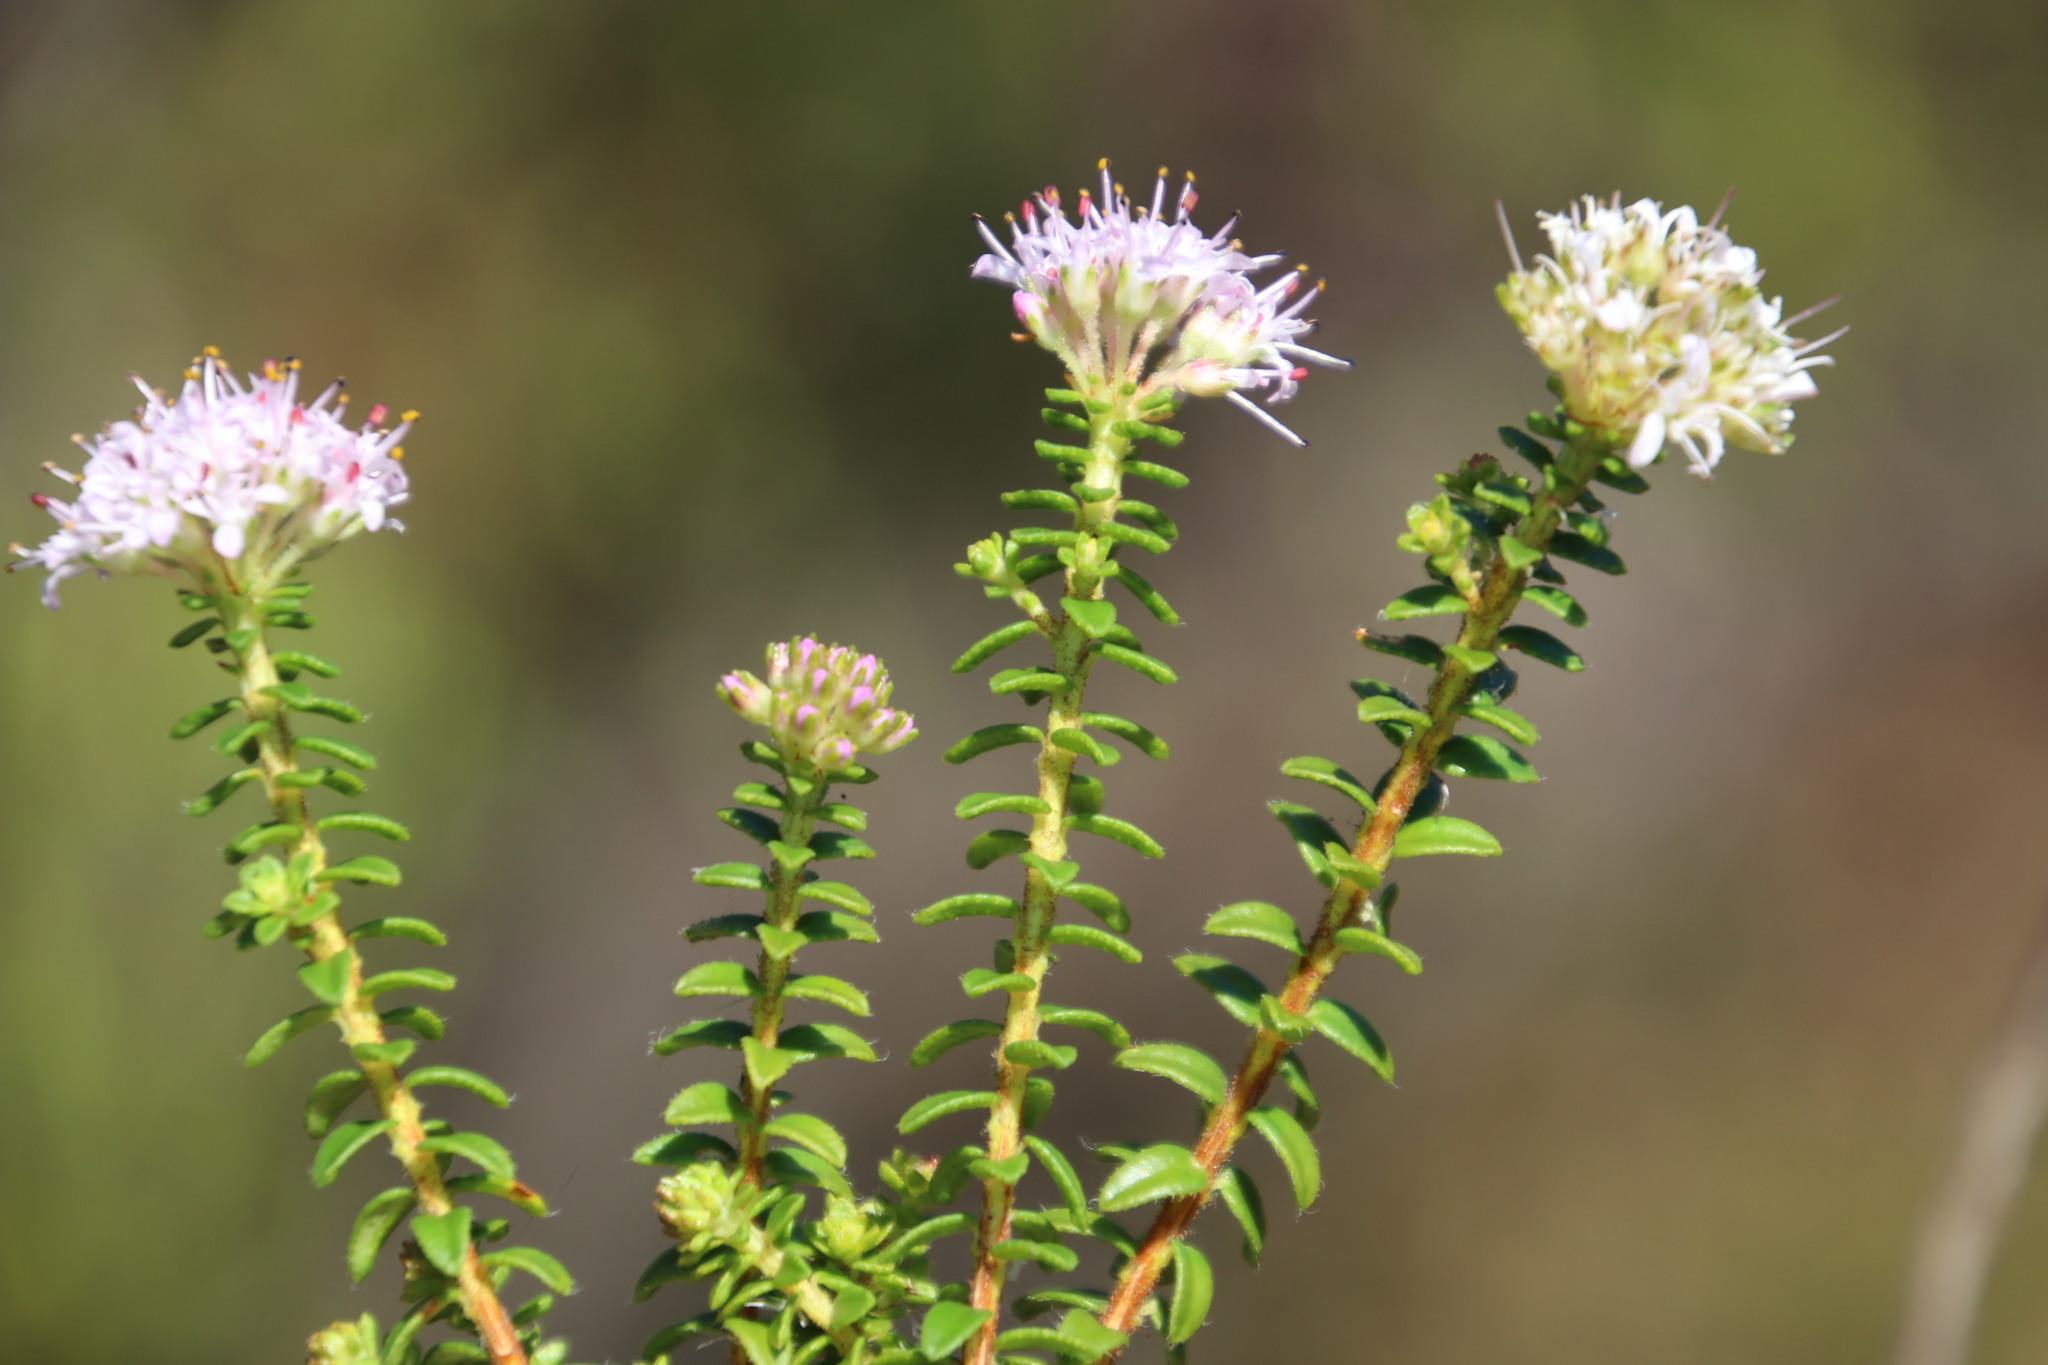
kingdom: Plantae
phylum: Tracheophyta
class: Magnoliopsida
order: Sapindales
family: Rutaceae
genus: Agathosma
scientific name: Agathosma ciliata
